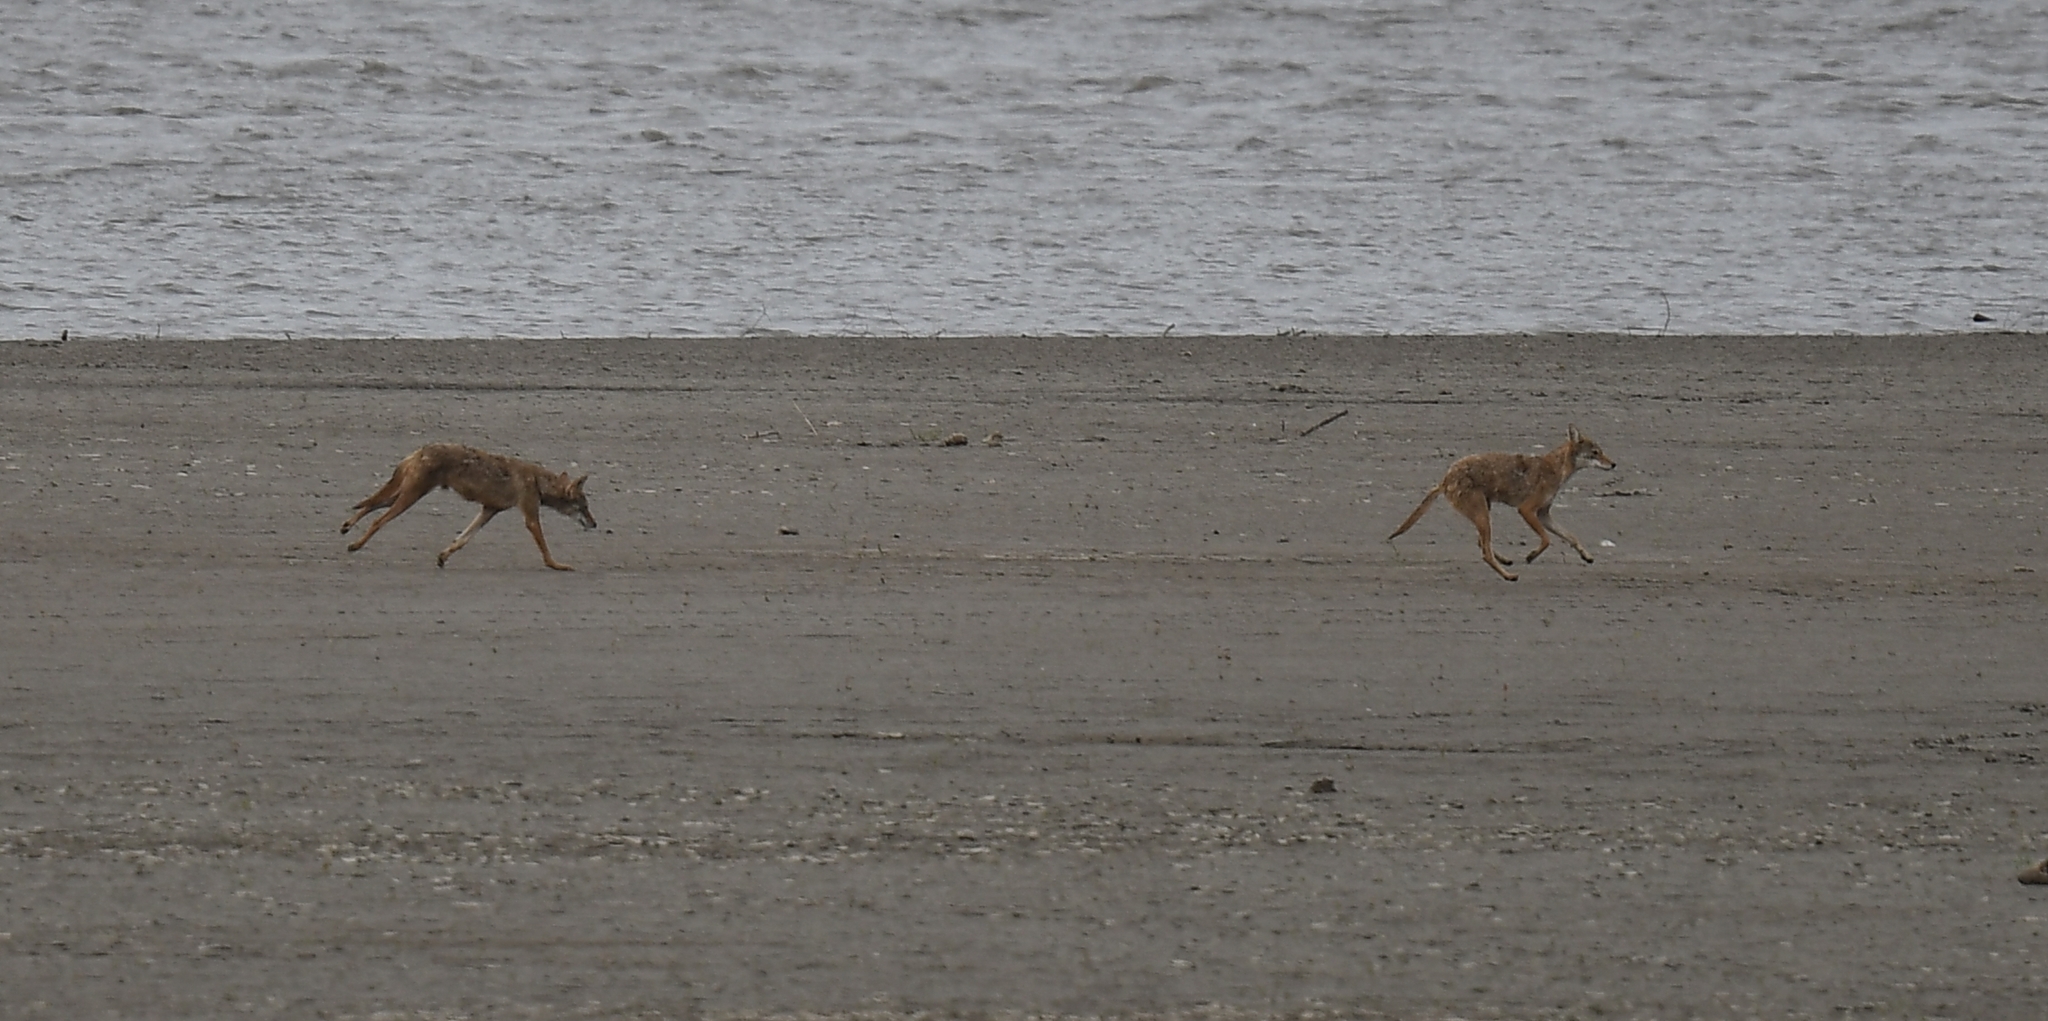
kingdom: Animalia
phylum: Chordata
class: Mammalia
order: Carnivora
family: Canidae
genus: Canis
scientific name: Canis latrans
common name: Coyote
